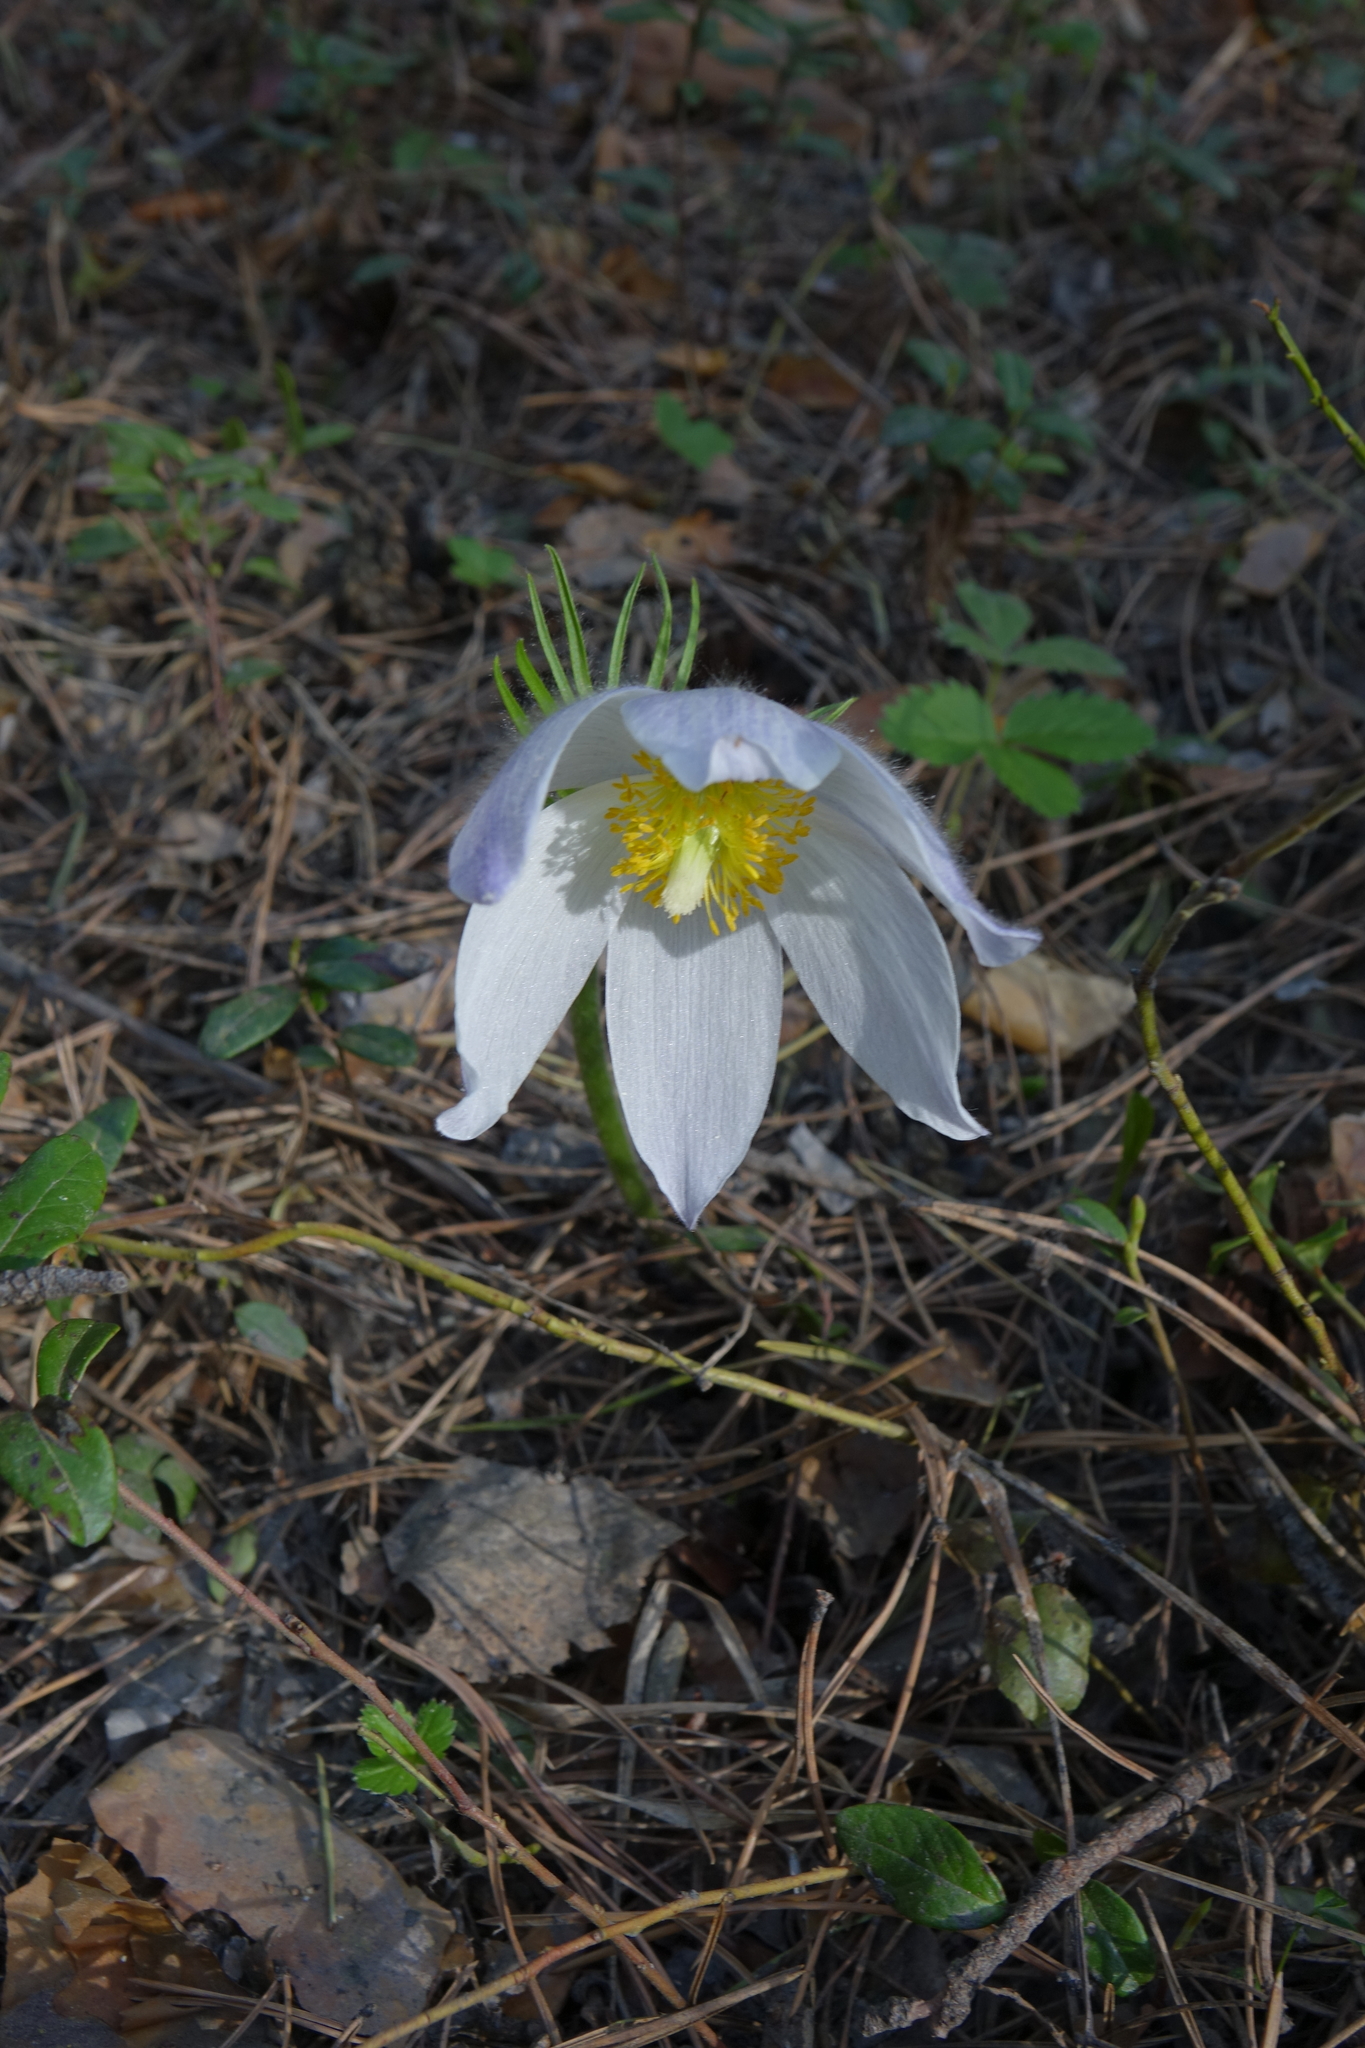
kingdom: Plantae
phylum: Tracheophyta
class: Magnoliopsida
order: Ranunculales
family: Ranunculaceae
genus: Pulsatilla
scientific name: Pulsatilla patens
